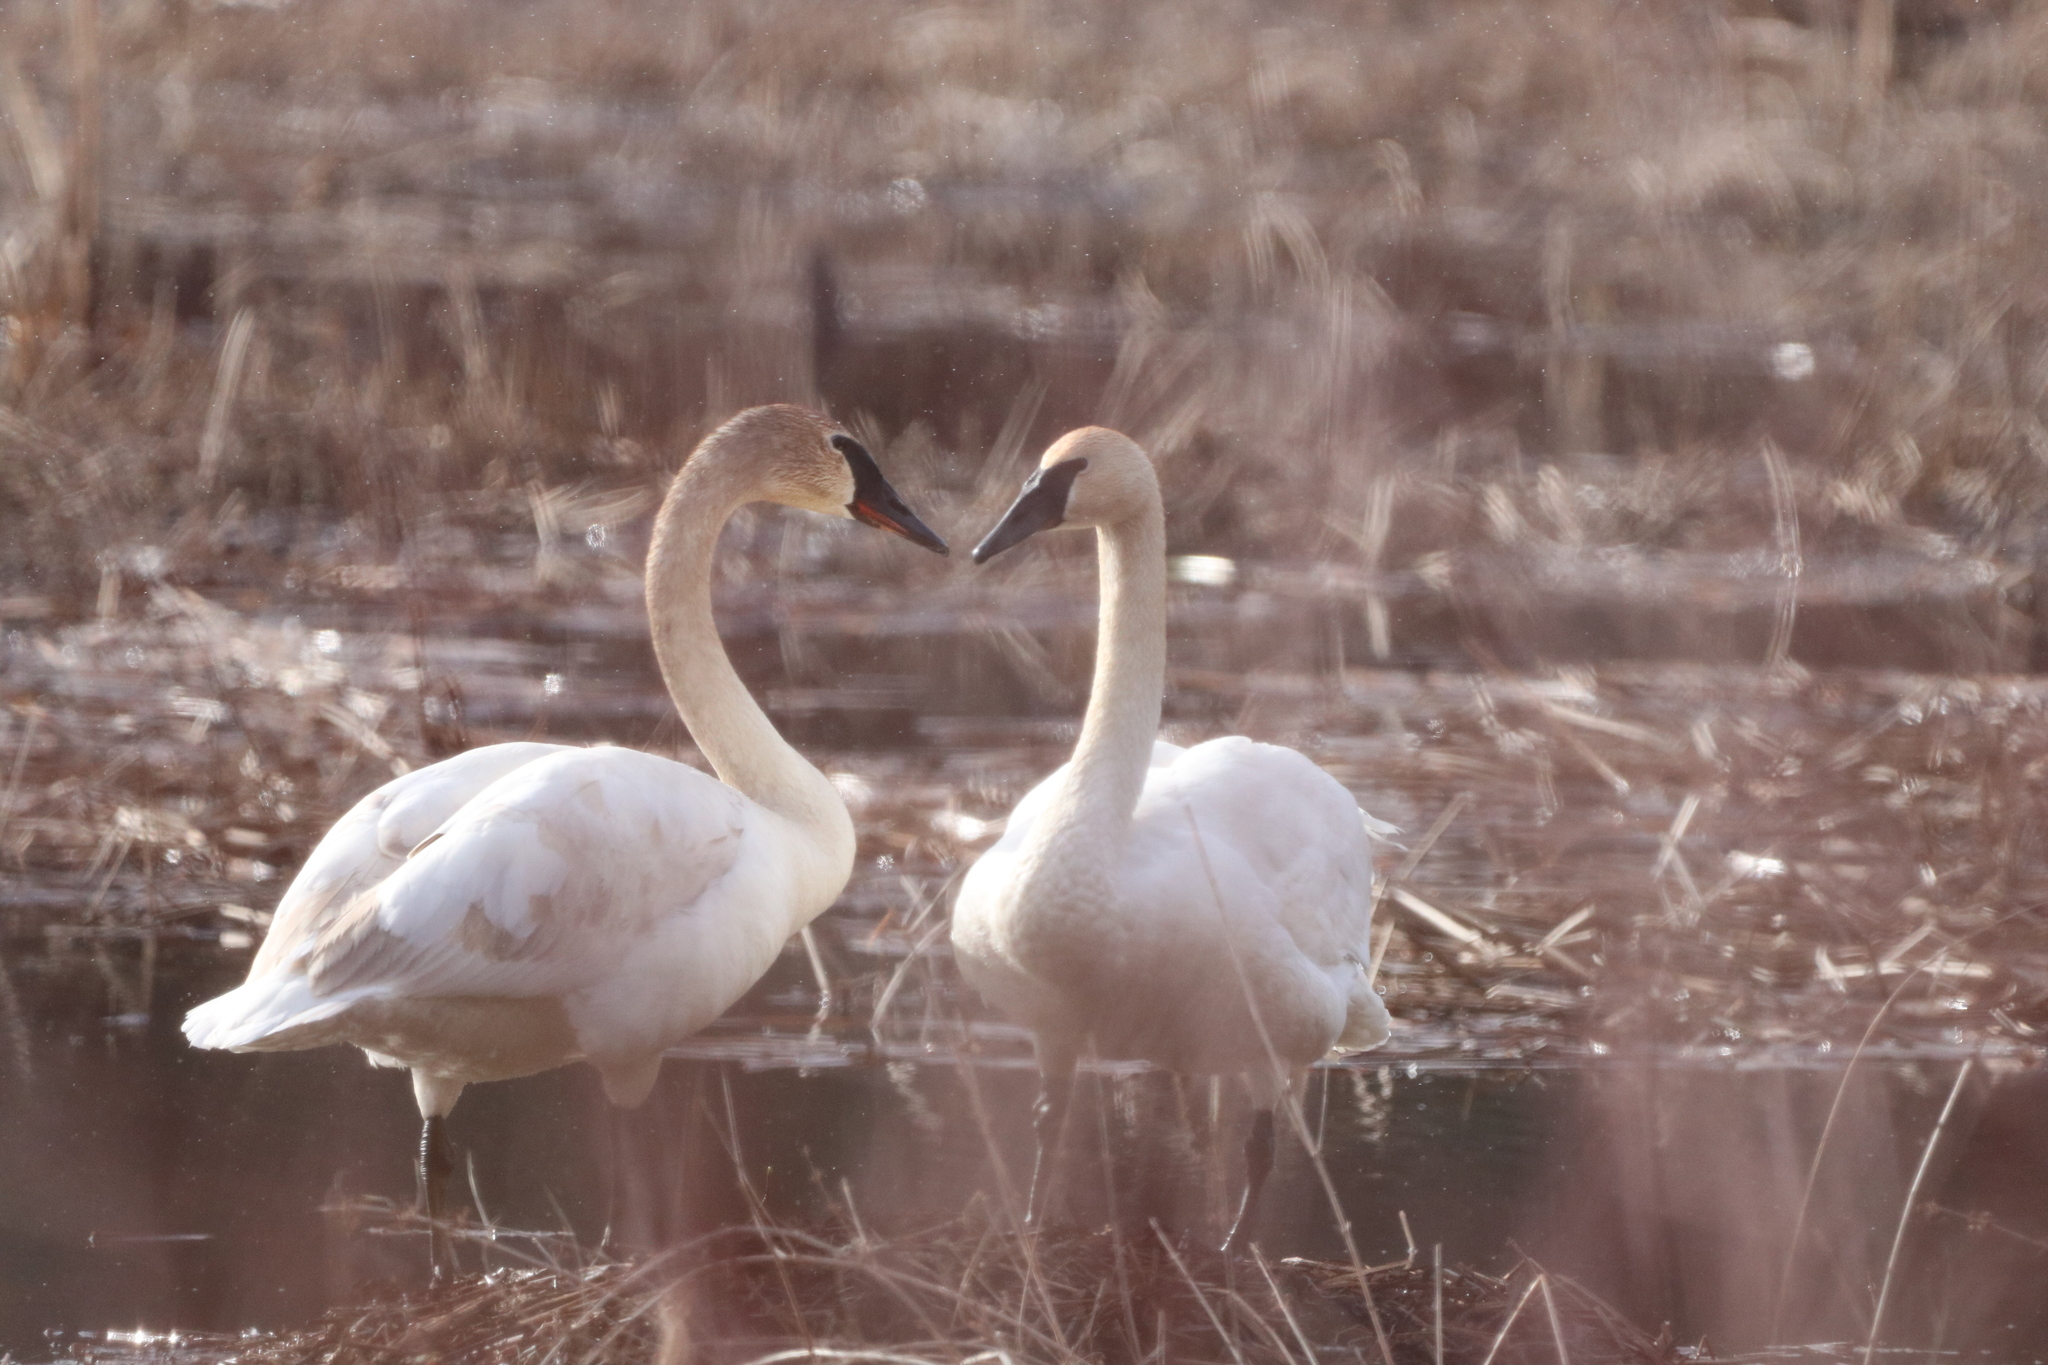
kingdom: Animalia
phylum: Chordata
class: Aves
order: Anseriformes
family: Anatidae
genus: Cygnus
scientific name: Cygnus buccinator
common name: Trumpeter swan
